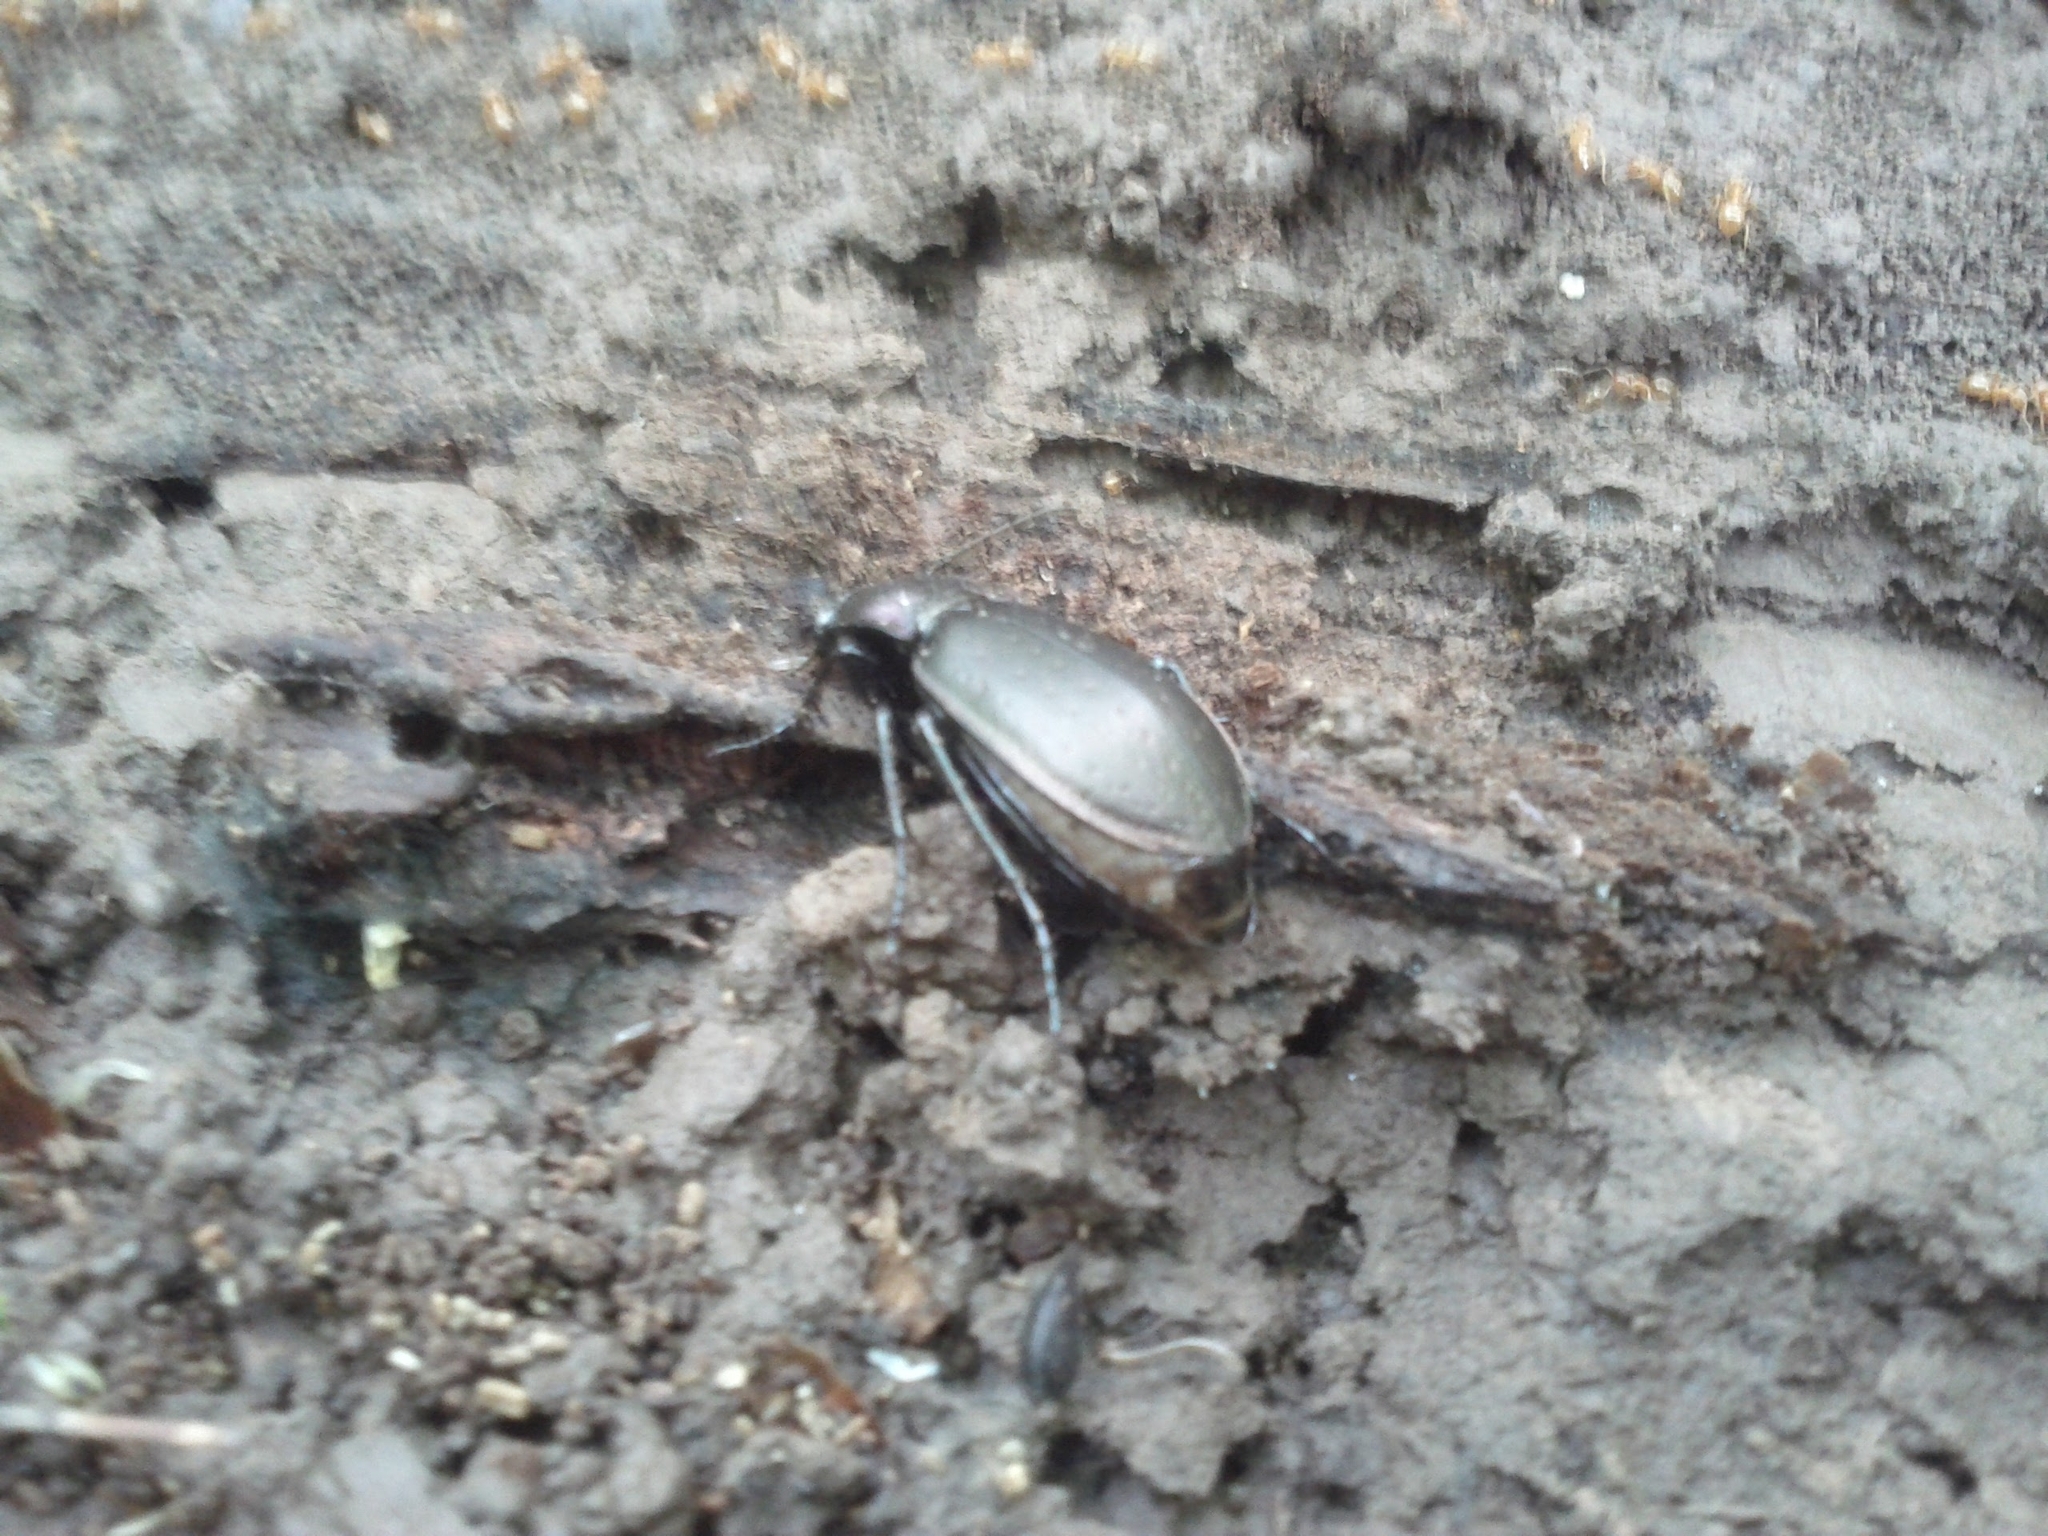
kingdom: Animalia
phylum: Arthropoda
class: Insecta
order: Coleoptera
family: Carabidae
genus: Carabus
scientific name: Carabus nemoralis
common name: European ground beetle
